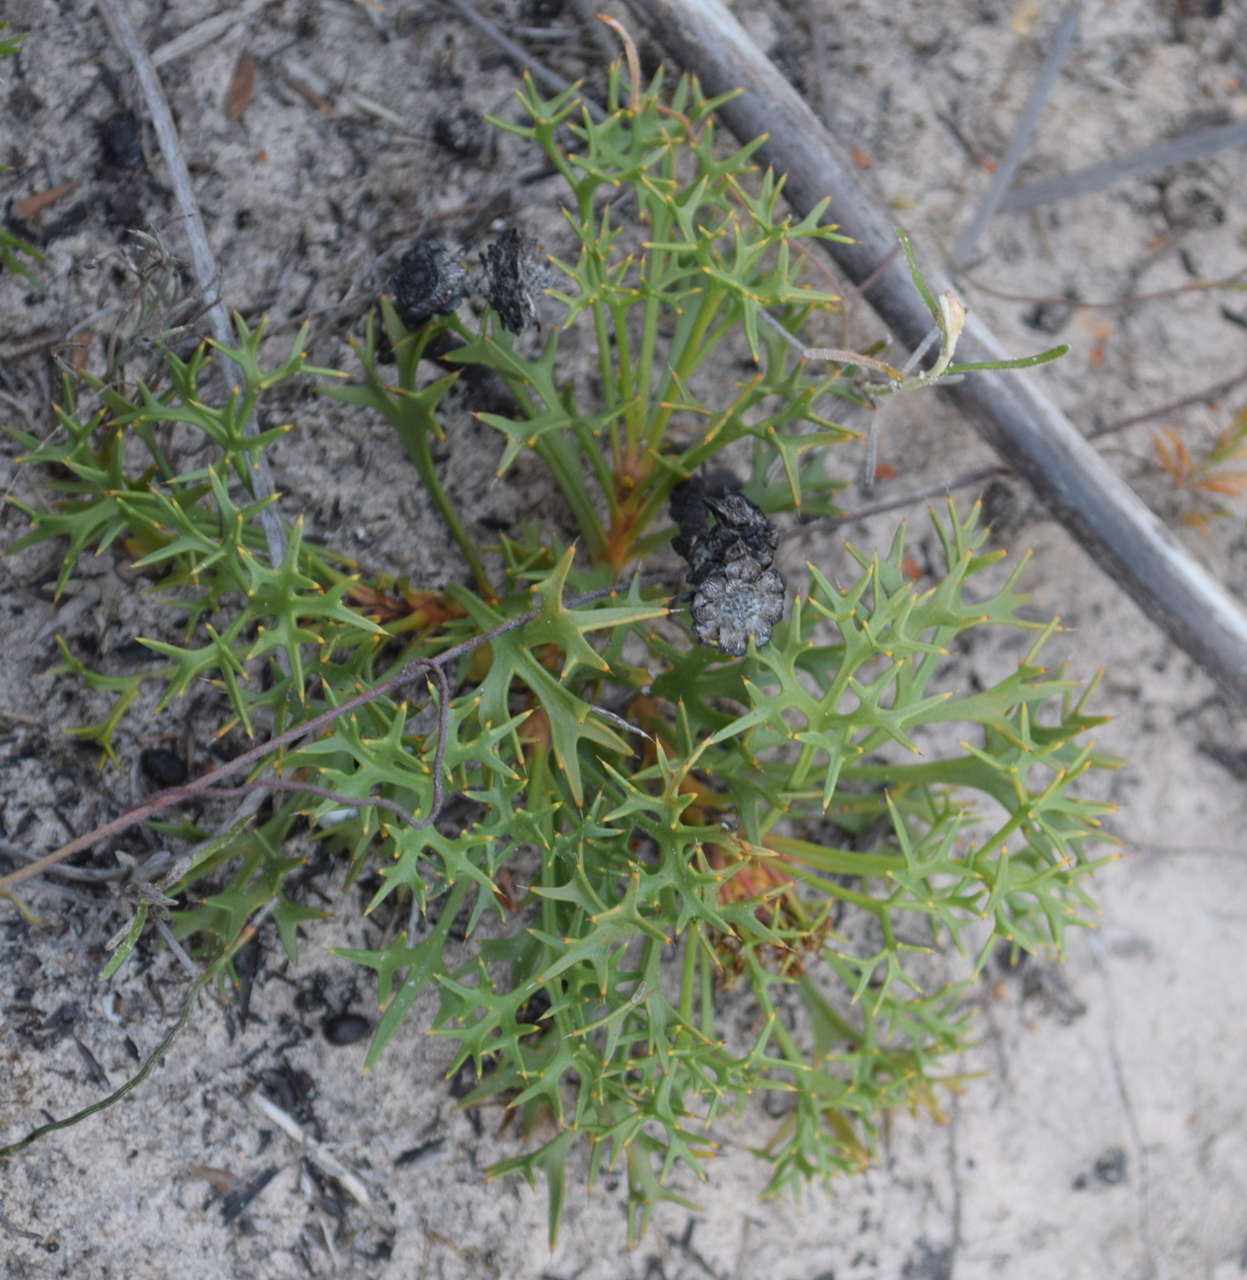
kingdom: Plantae
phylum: Tracheophyta
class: Magnoliopsida
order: Proteales
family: Proteaceae
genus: Isopogon
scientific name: Isopogon ceratophyllus
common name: Horny cone-bush
